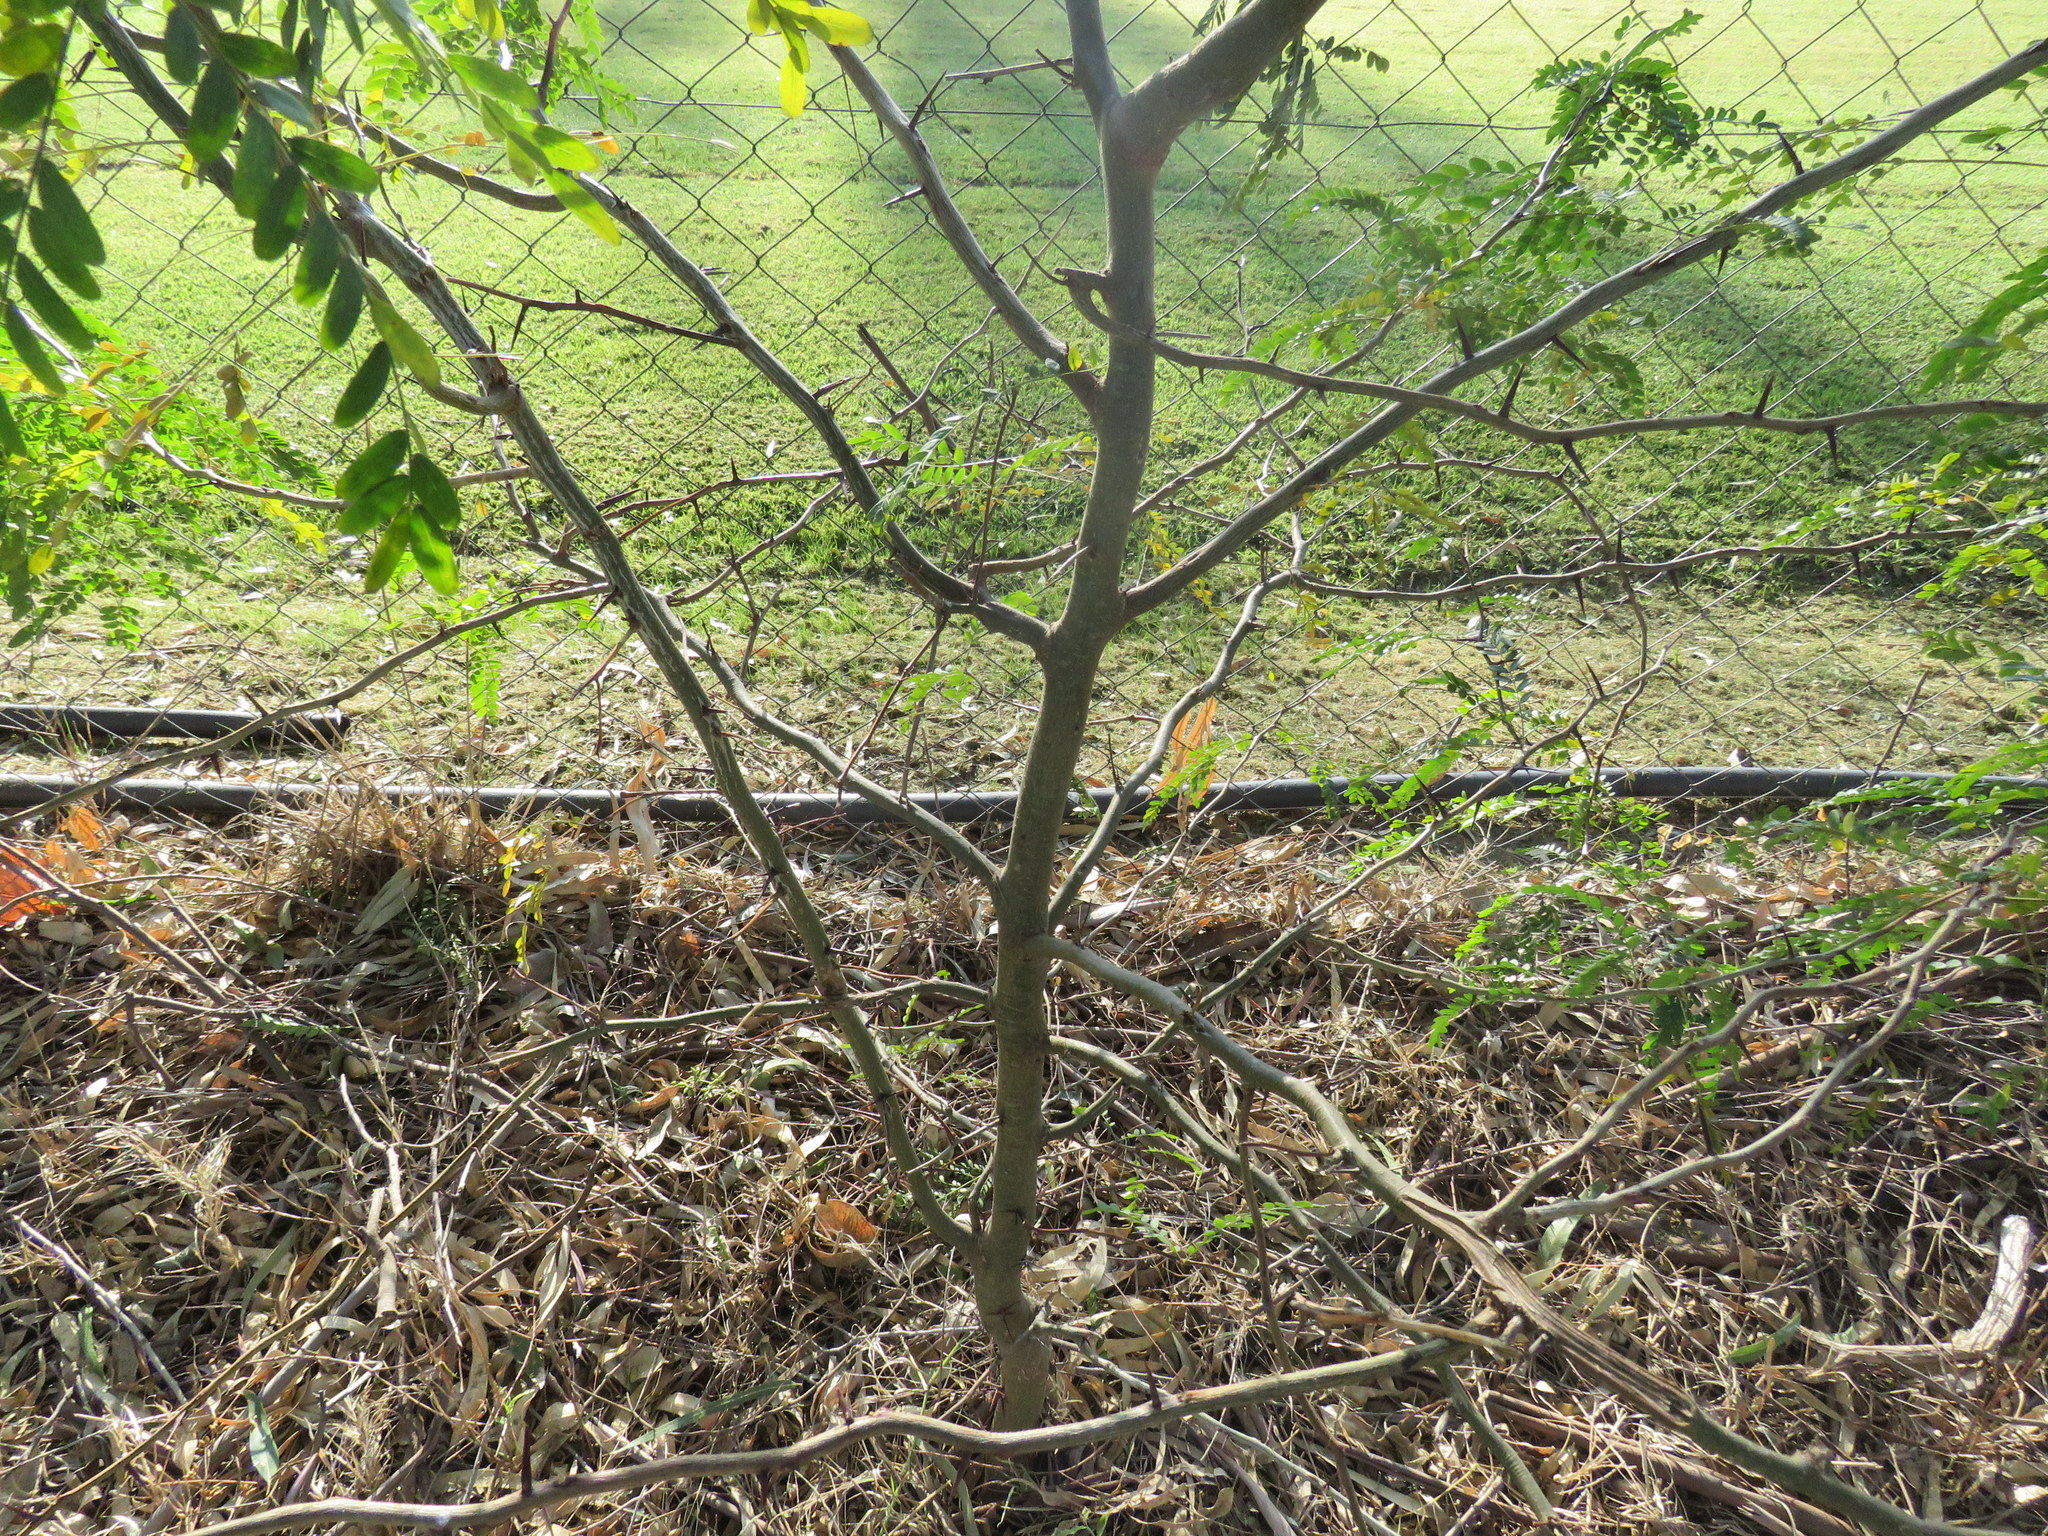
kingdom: Plantae
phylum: Tracheophyta
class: Magnoliopsida
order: Fabales
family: Fabaceae
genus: Gleditsia
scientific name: Gleditsia triacanthos
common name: Common honeylocust
